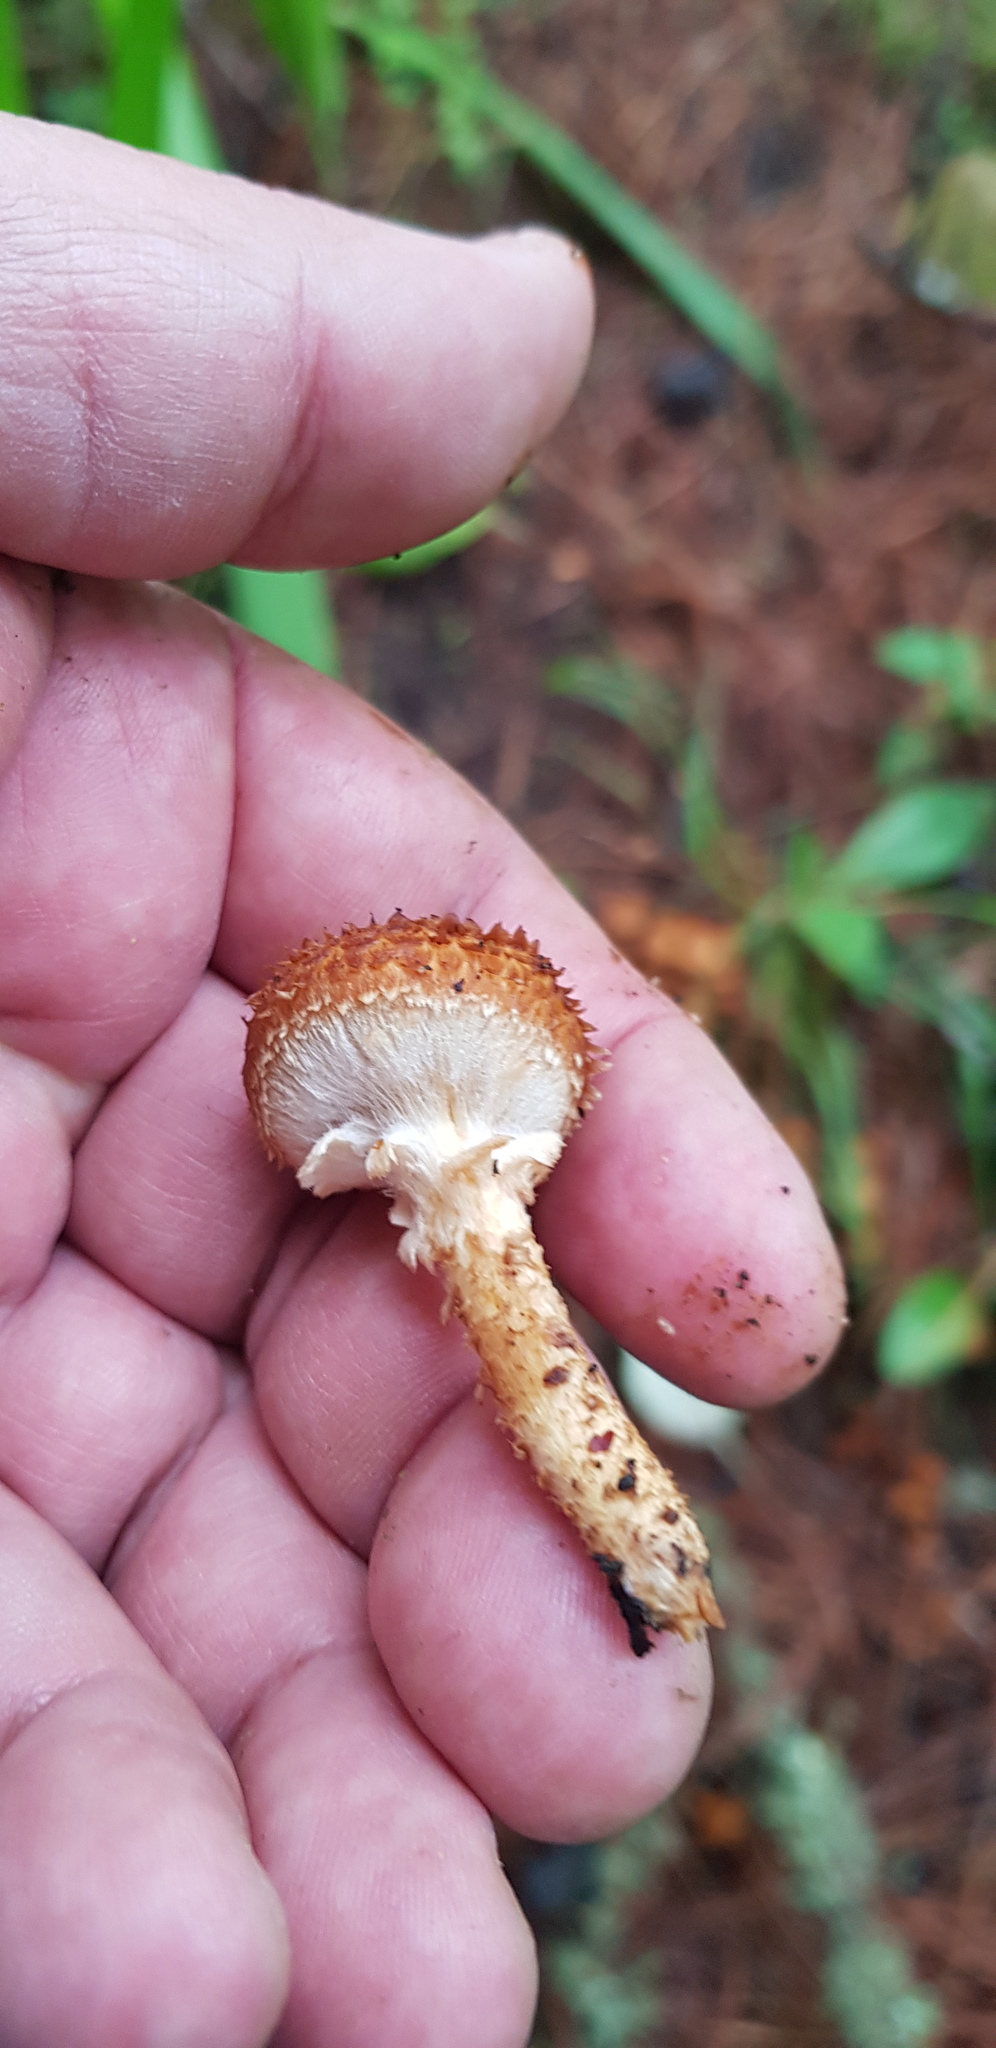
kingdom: Fungi
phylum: Basidiomycota
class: Agaricomycetes
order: Agaricales
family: Strophariaceae
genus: Pholiota
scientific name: Pholiota squarrosa
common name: Shaggy pholiota
